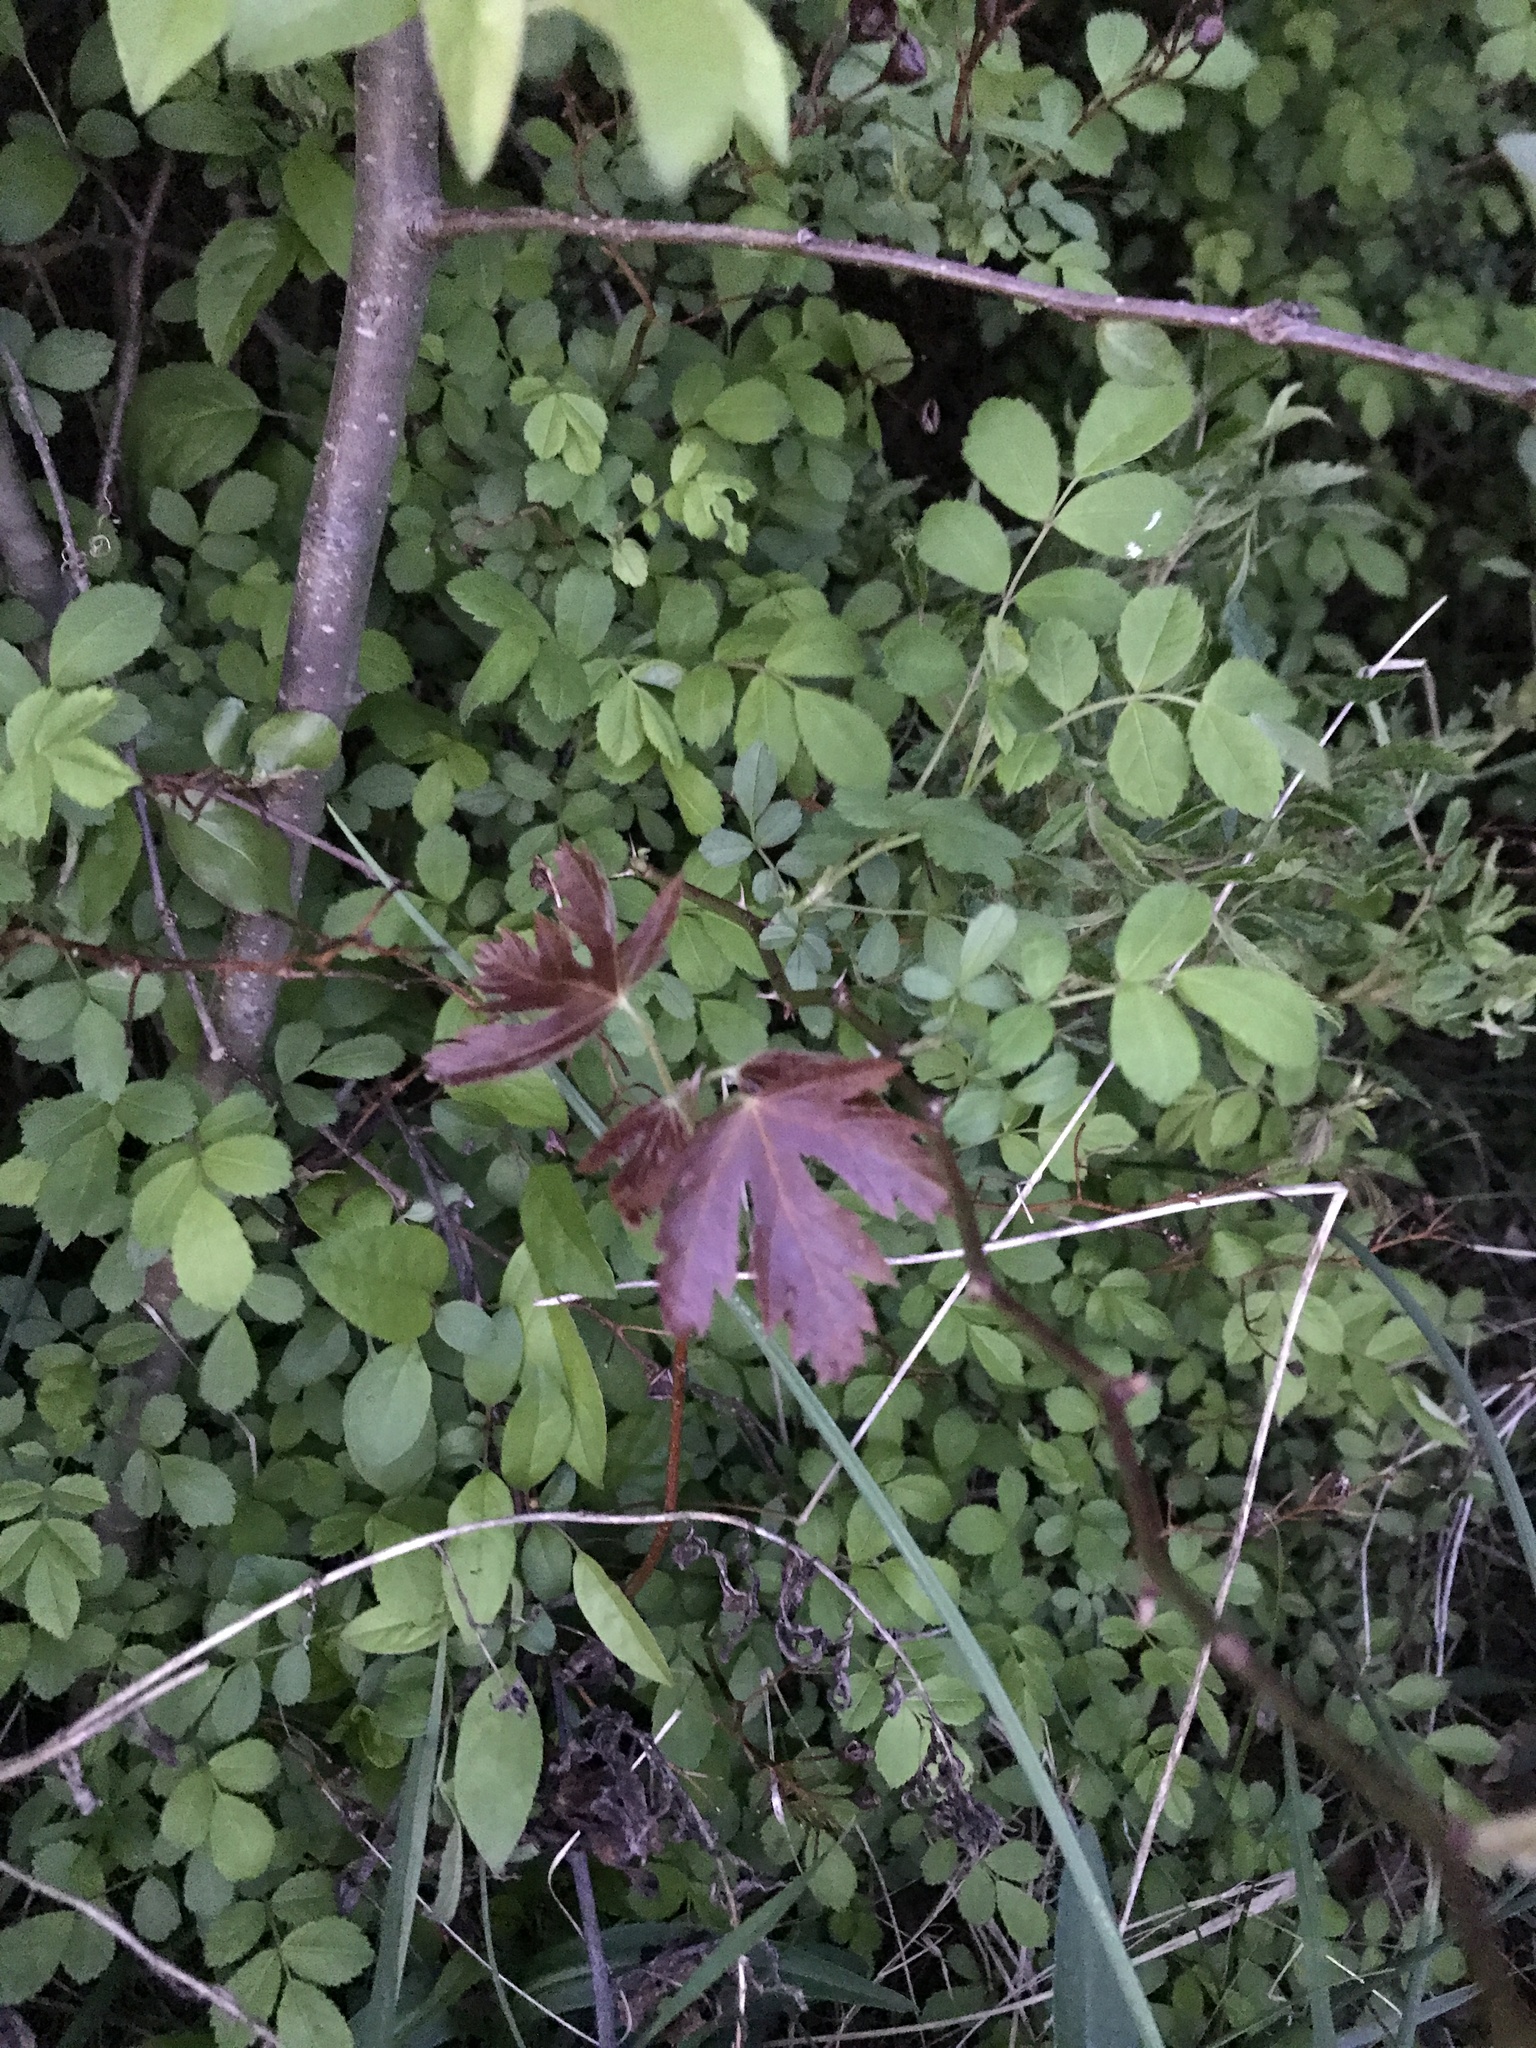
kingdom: Plantae
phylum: Tracheophyta
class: Magnoliopsida
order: Sapindales
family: Sapindaceae
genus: Acer
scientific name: Acer saccharinum
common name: Silver maple
